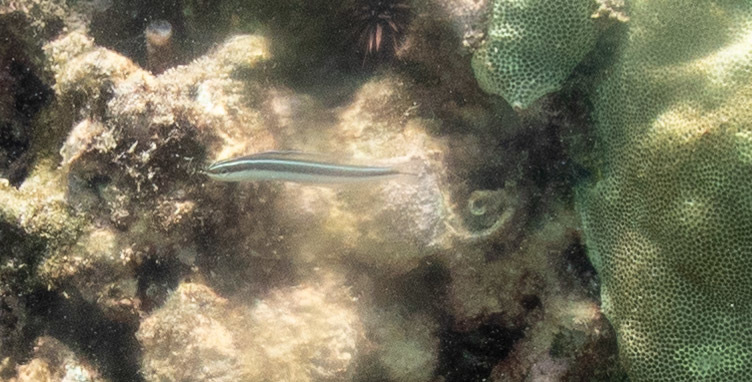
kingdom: Animalia
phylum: Chordata
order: Perciformes
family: Blenniidae
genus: Plagiotremus
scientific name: Plagiotremus goslinei
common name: Biting blenny
